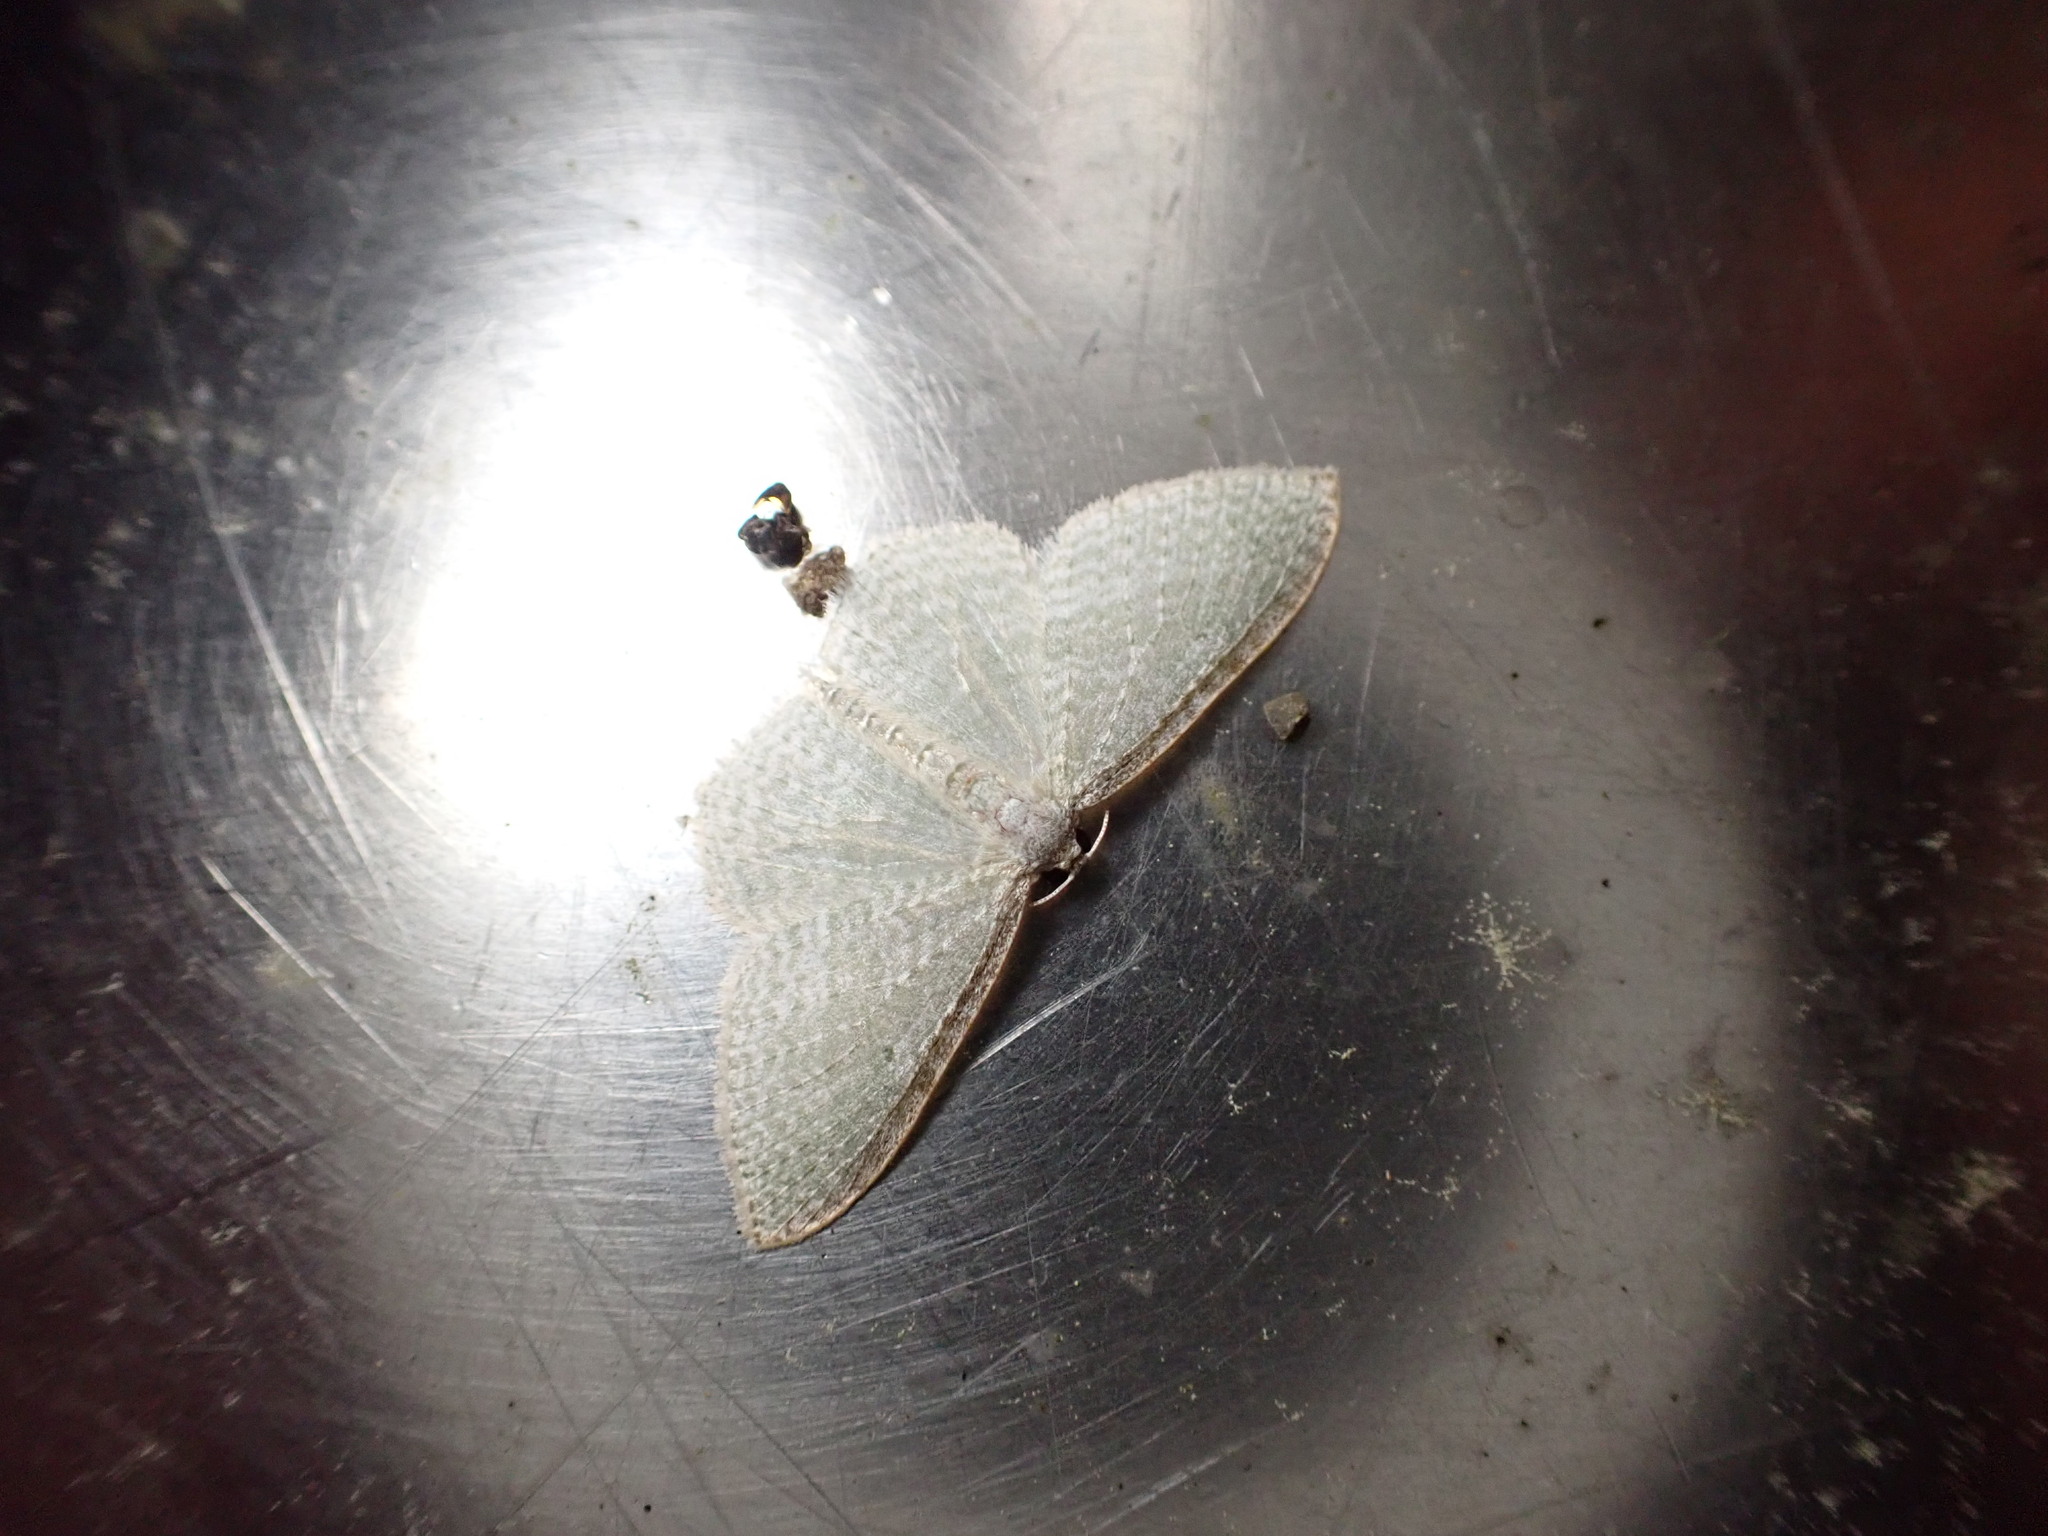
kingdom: Animalia
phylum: Arthropoda
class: Insecta
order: Lepidoptera
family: Geometridae
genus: Poecilasthena
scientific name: Poecilasthena pulchraria
